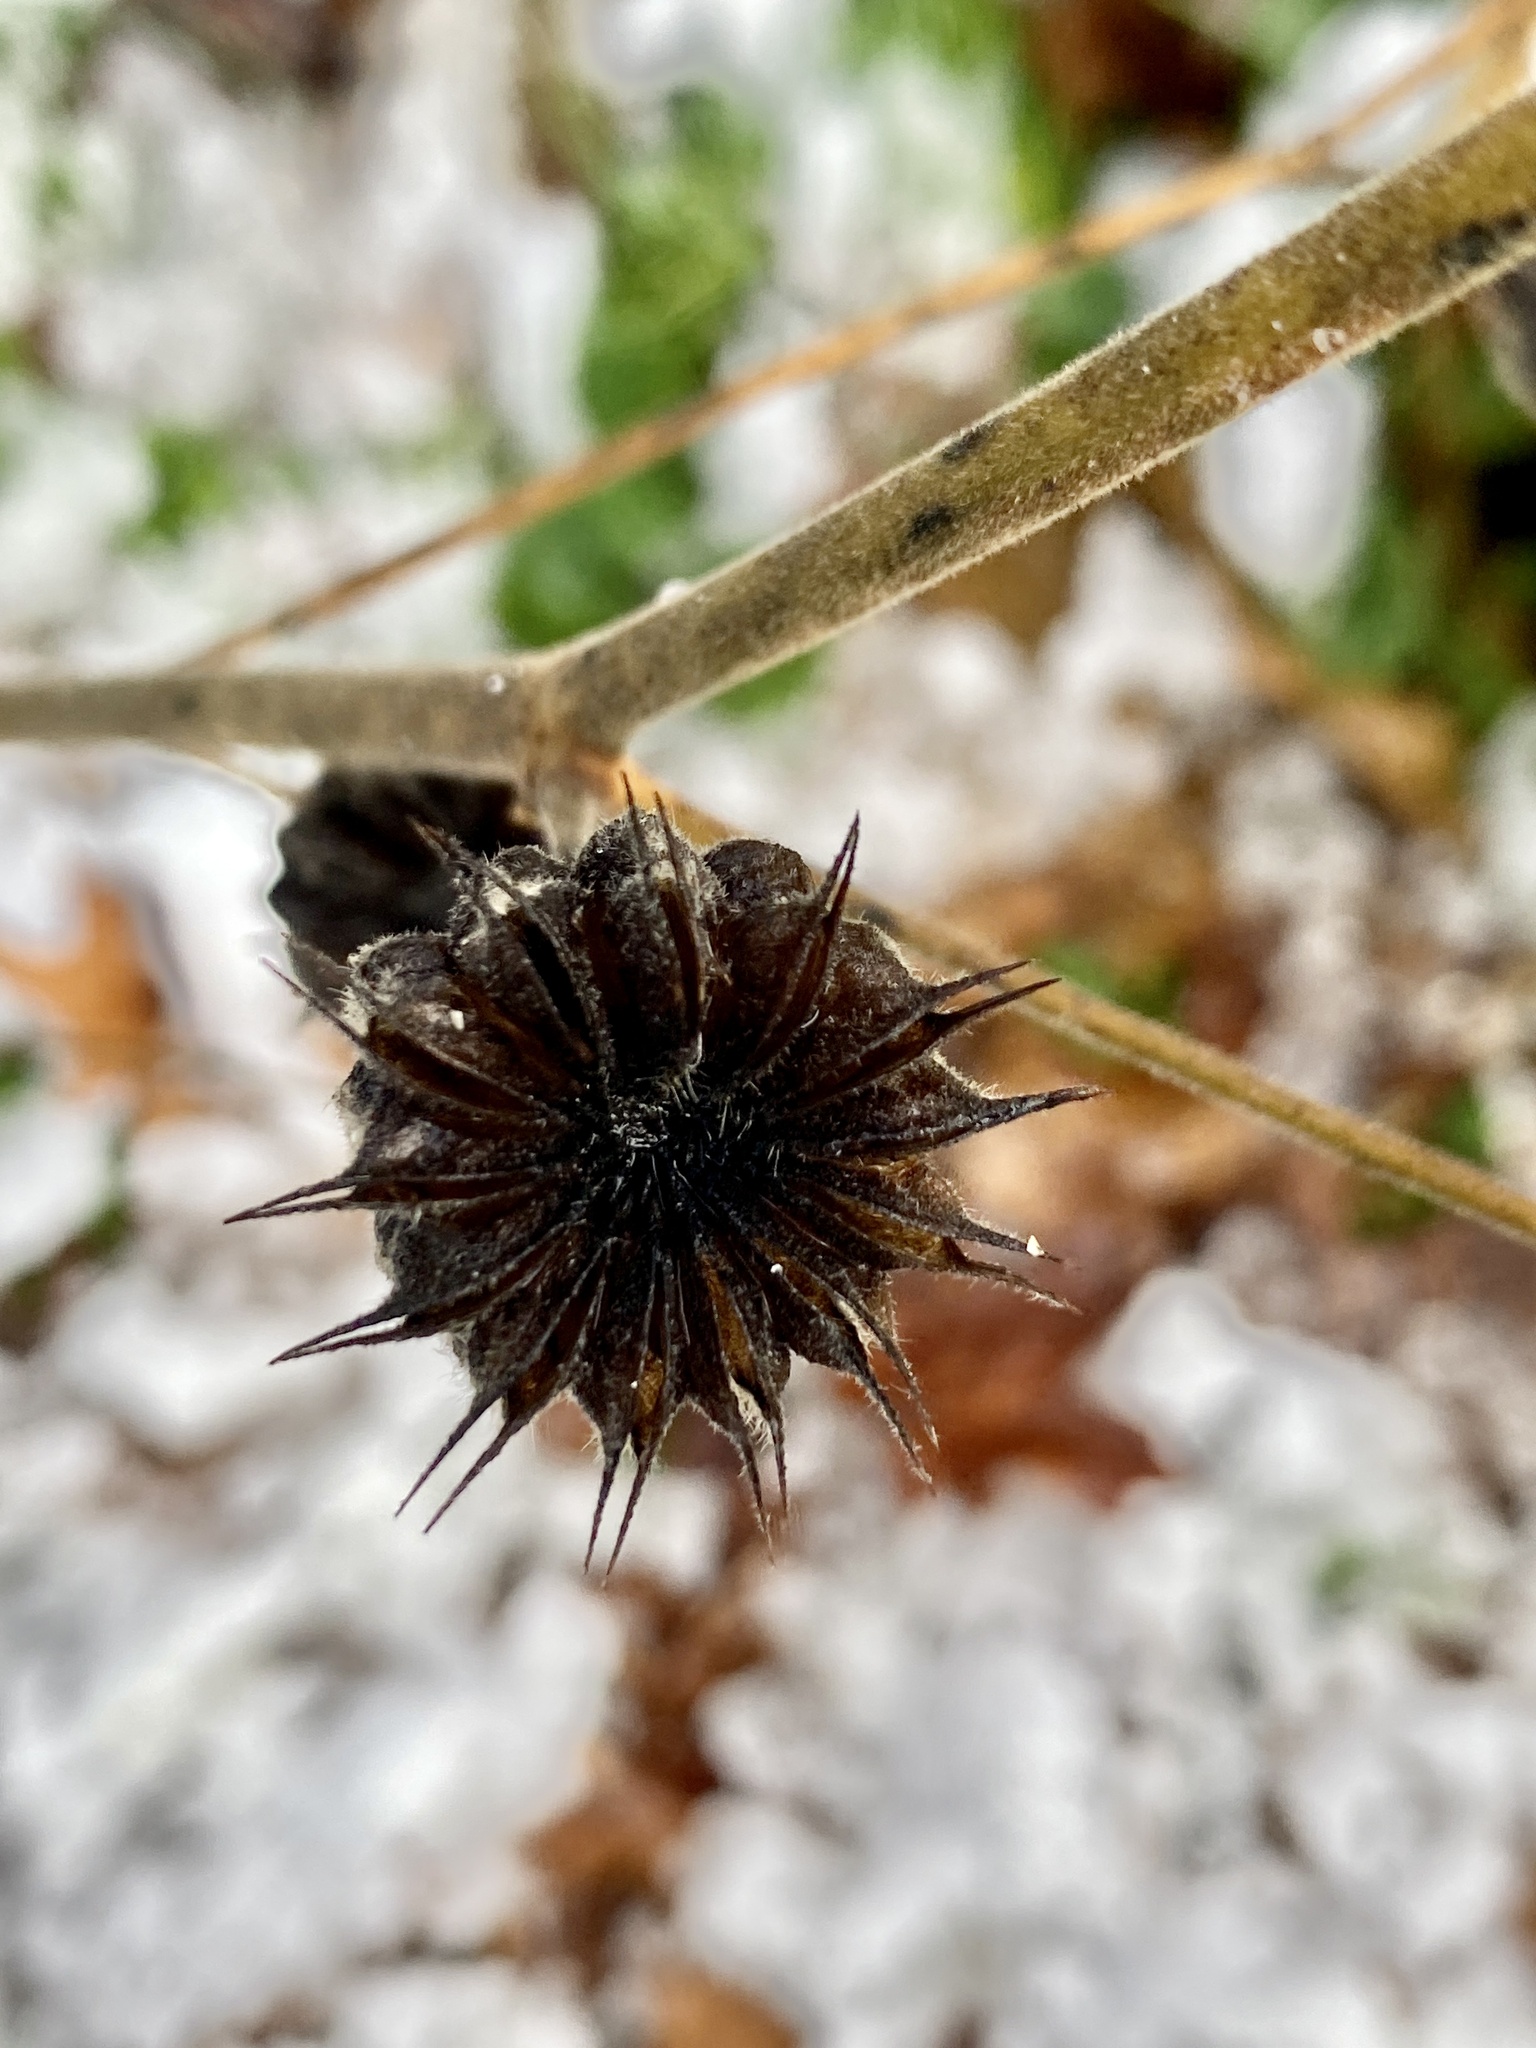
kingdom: Plantae
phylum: Tracheophyta
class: Magnoliopsida
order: Malvales
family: Malvaceae
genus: Abutilon
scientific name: Abutilon theophrasti
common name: Velvetleaf
